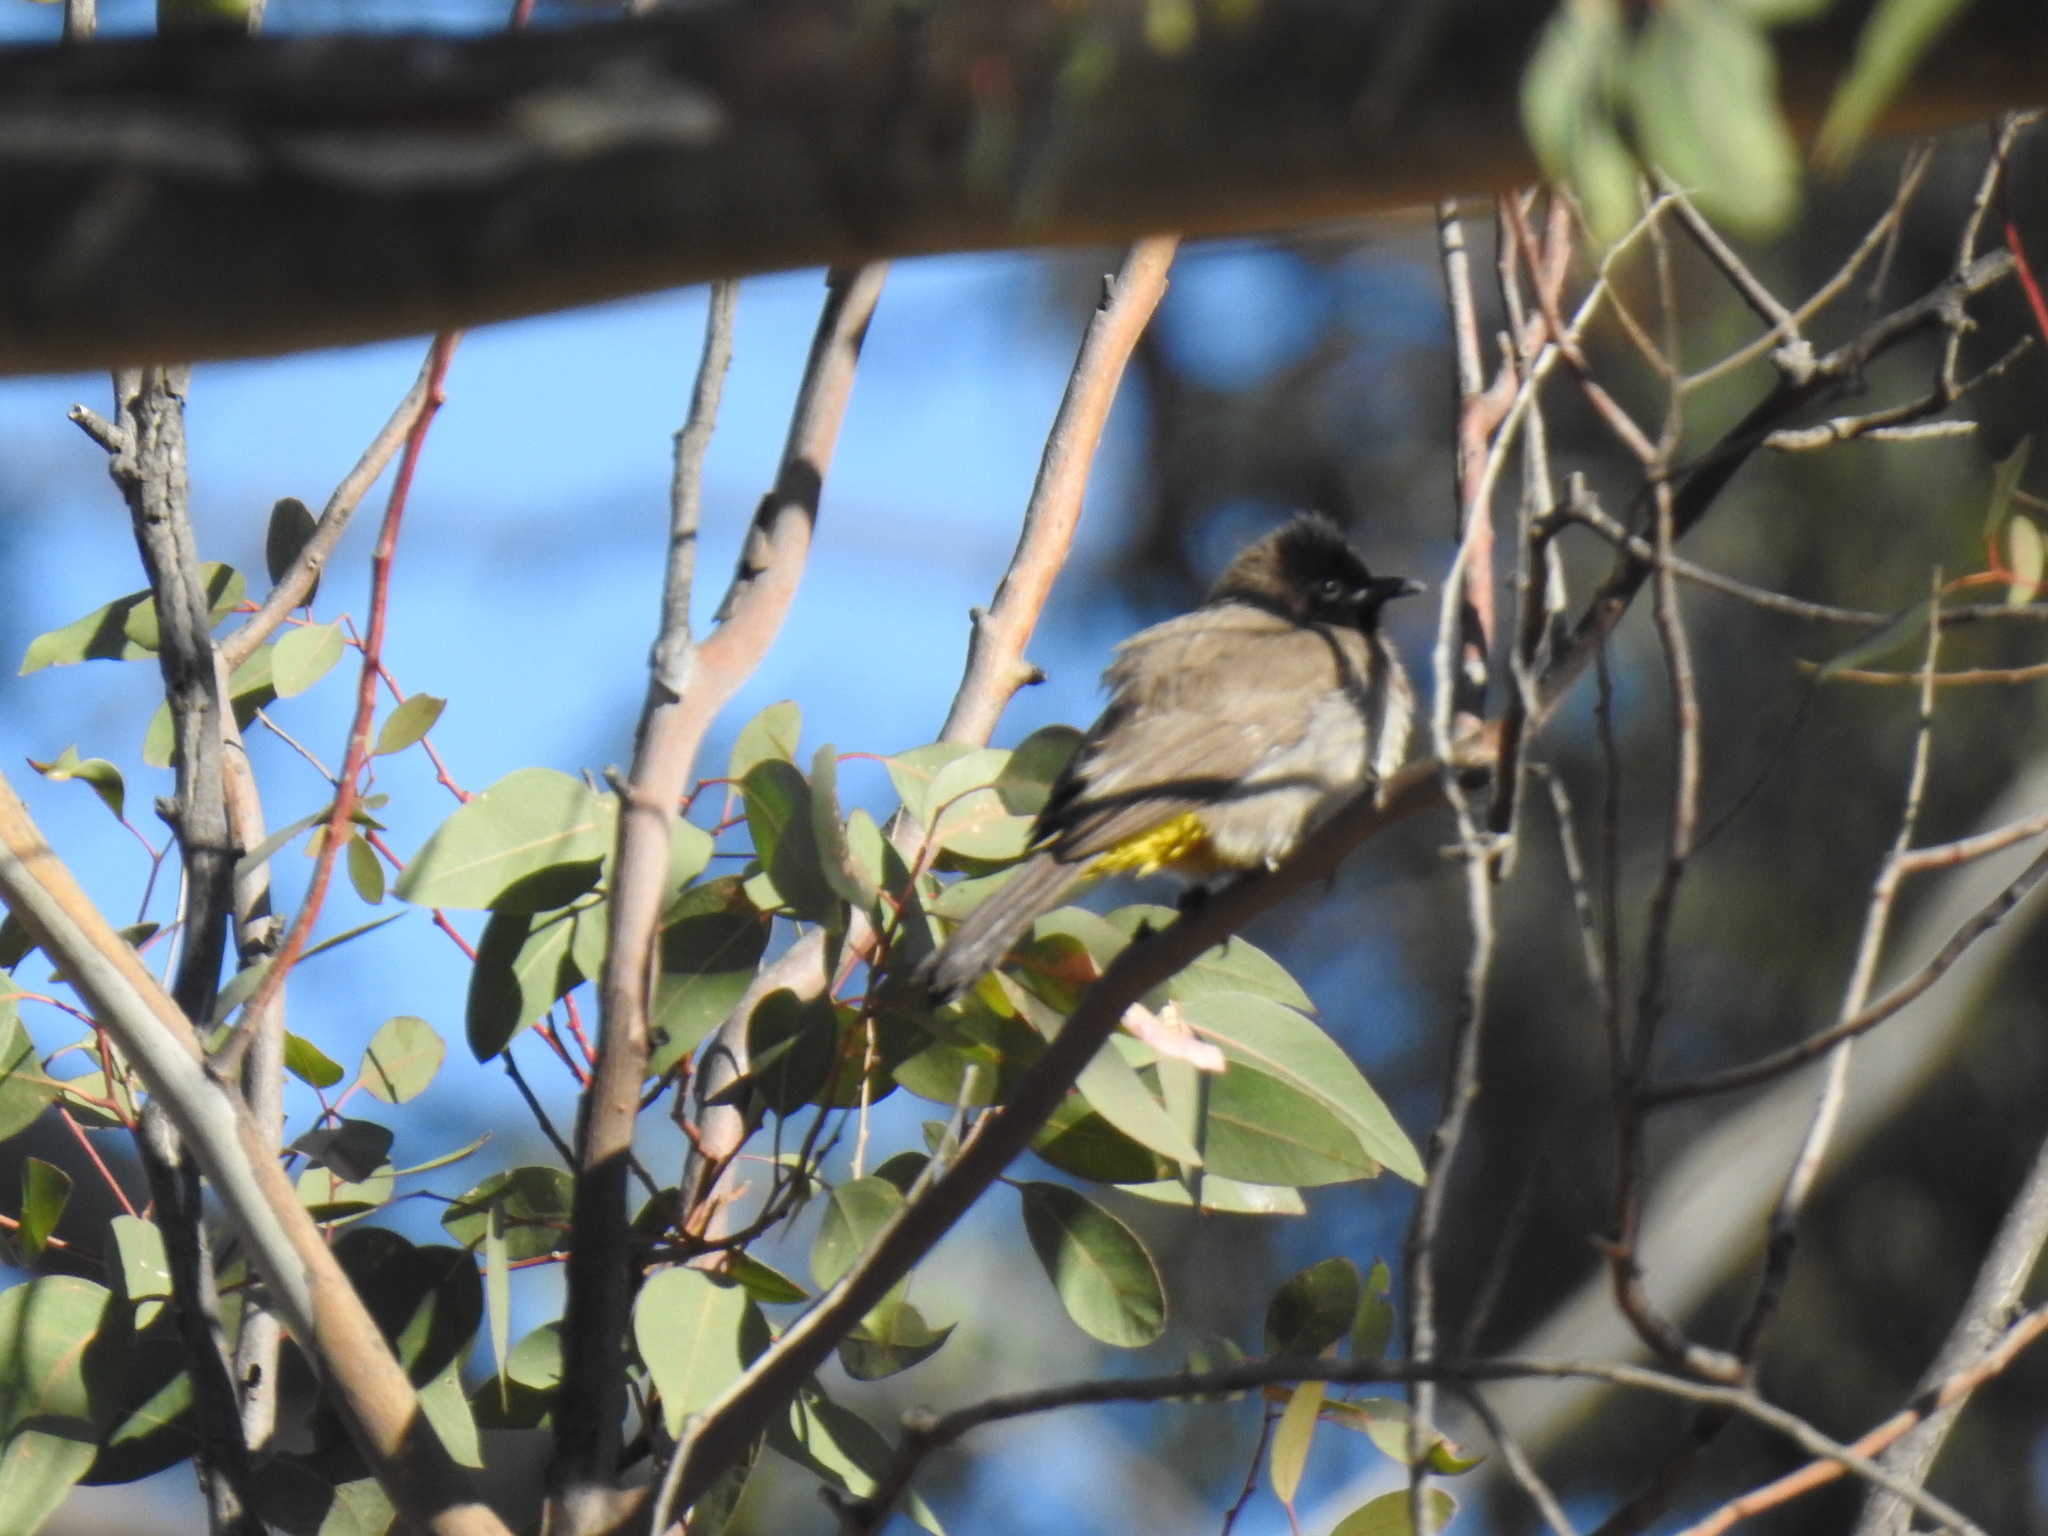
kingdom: Animalia
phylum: Chordata
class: Aves
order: Passeriformes
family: Pycnonotidae
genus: Pycnonotus
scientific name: Pycnonotus barbatus
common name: Common bulbul
